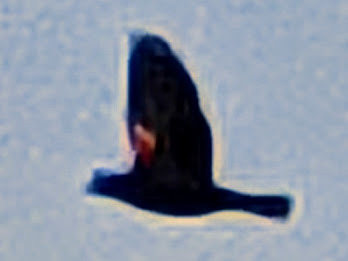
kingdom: Animalia
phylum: Chordata
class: Aves
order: Passeriformes
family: Icteridae
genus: Agelaius
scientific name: Agelaius phoeniceus
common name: Red-winged blackbird
